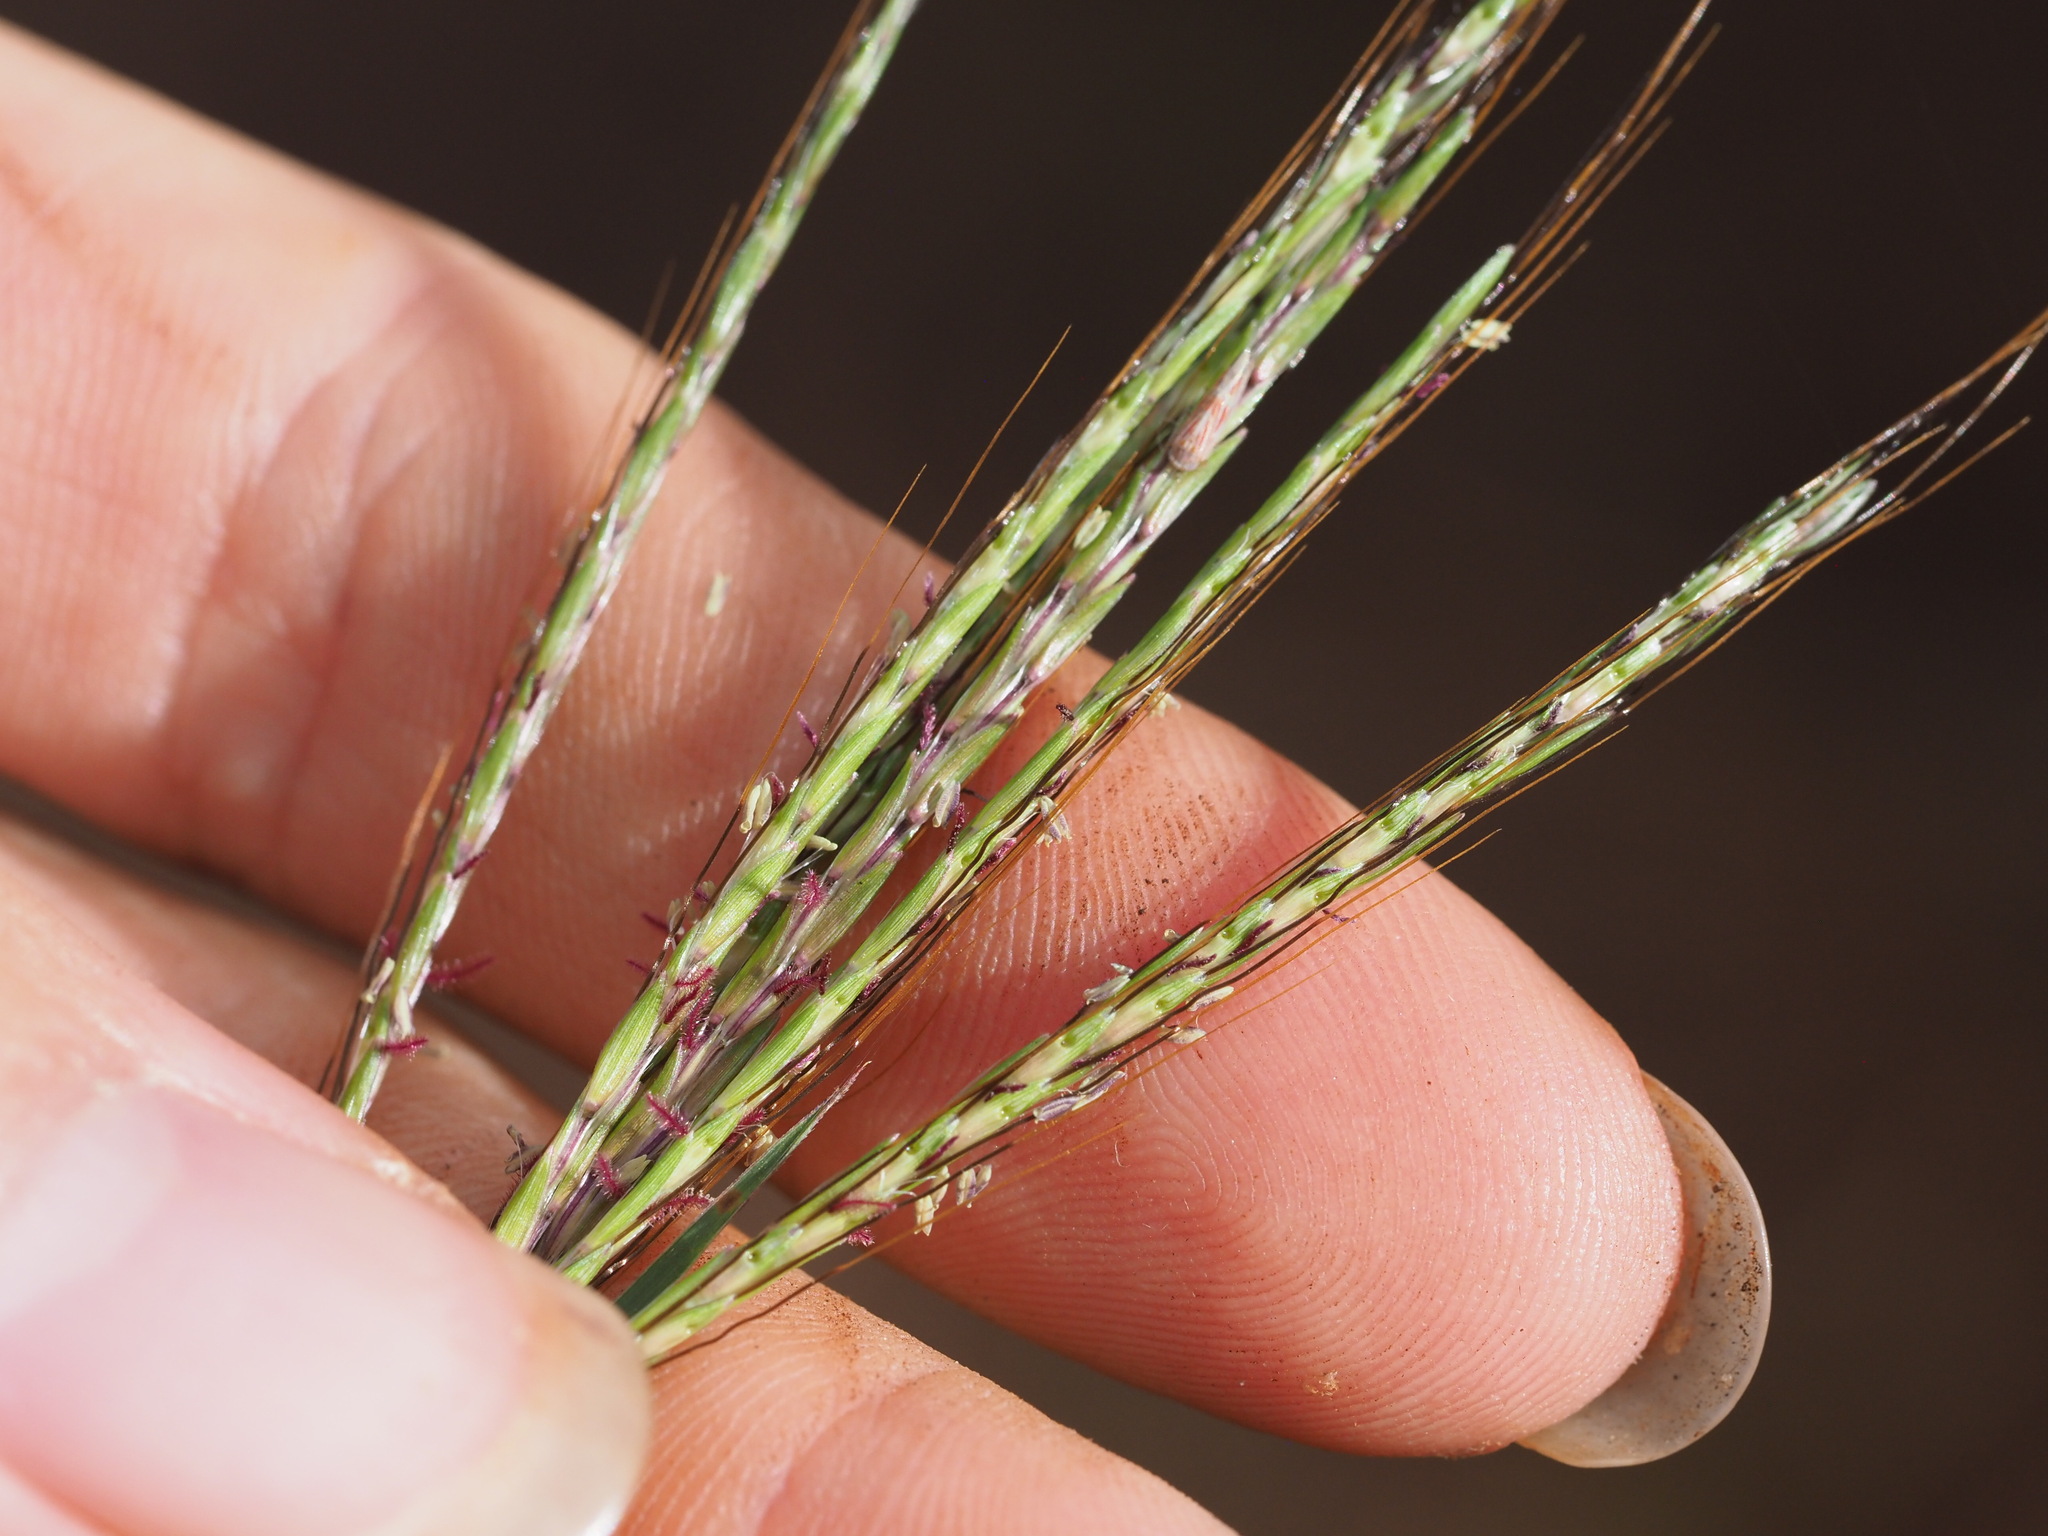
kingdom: Plantae
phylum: Tracheophyta
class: Liliopsida
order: Poales
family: Poaceae
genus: Bothriochloa
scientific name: Bothriochloa pertusa
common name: Pitted beardgrass
